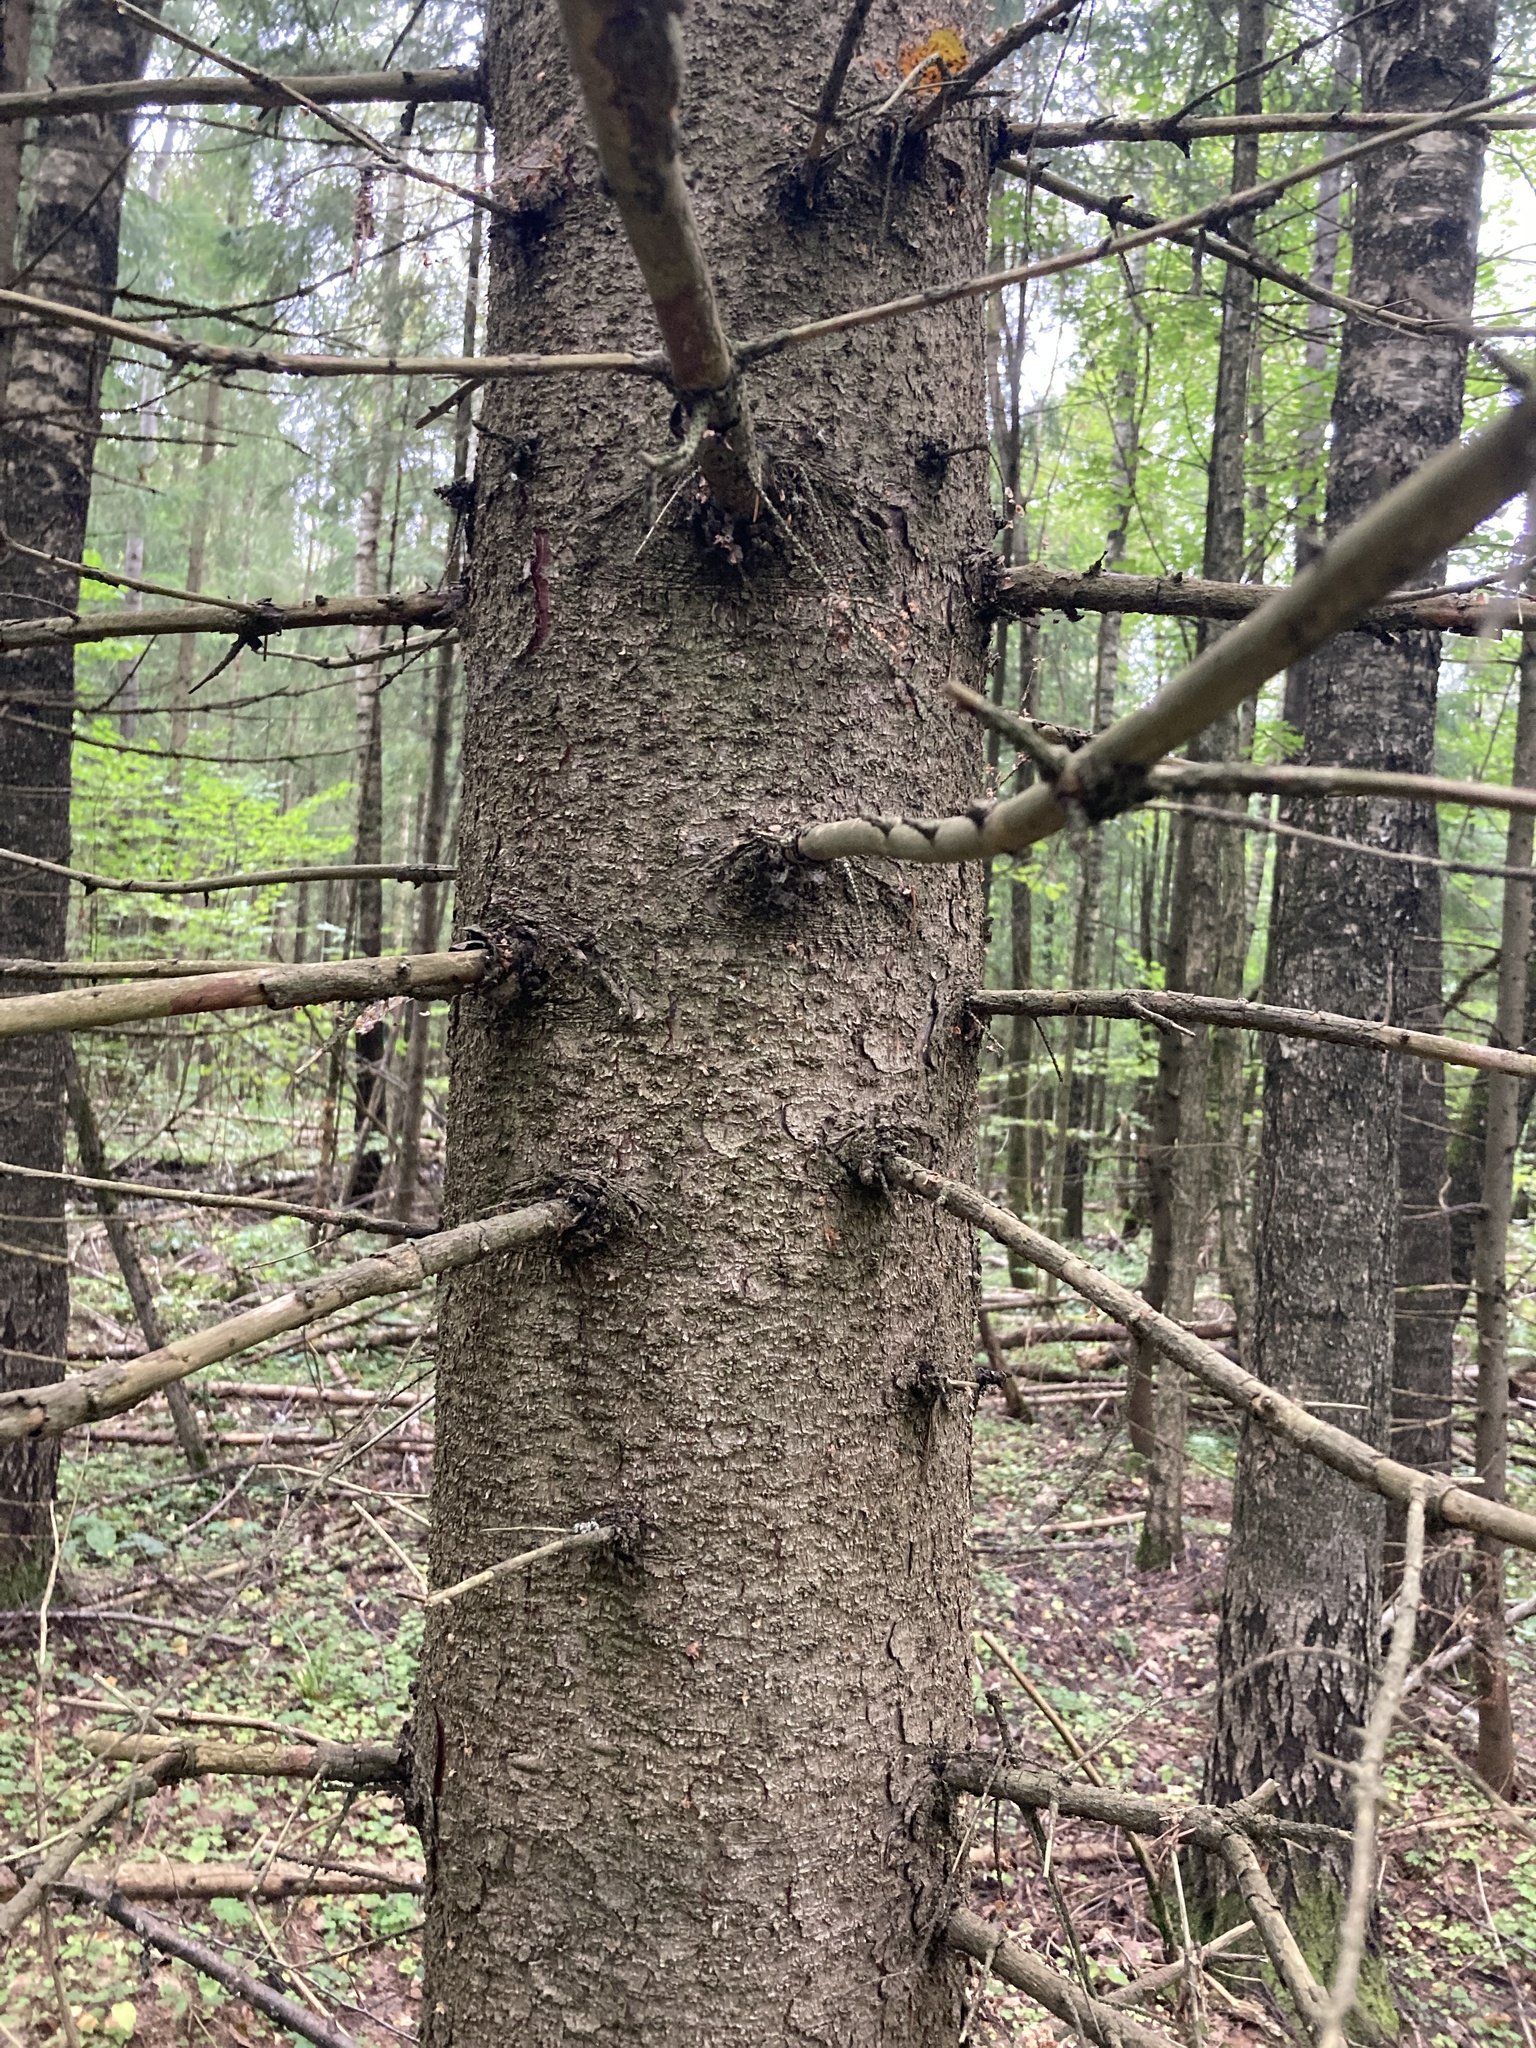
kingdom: Plantae
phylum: Tracheophyta
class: Pinopsida
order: Pinales
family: Pinaceae
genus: Picea
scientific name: Picea abies
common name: Norway spruce
